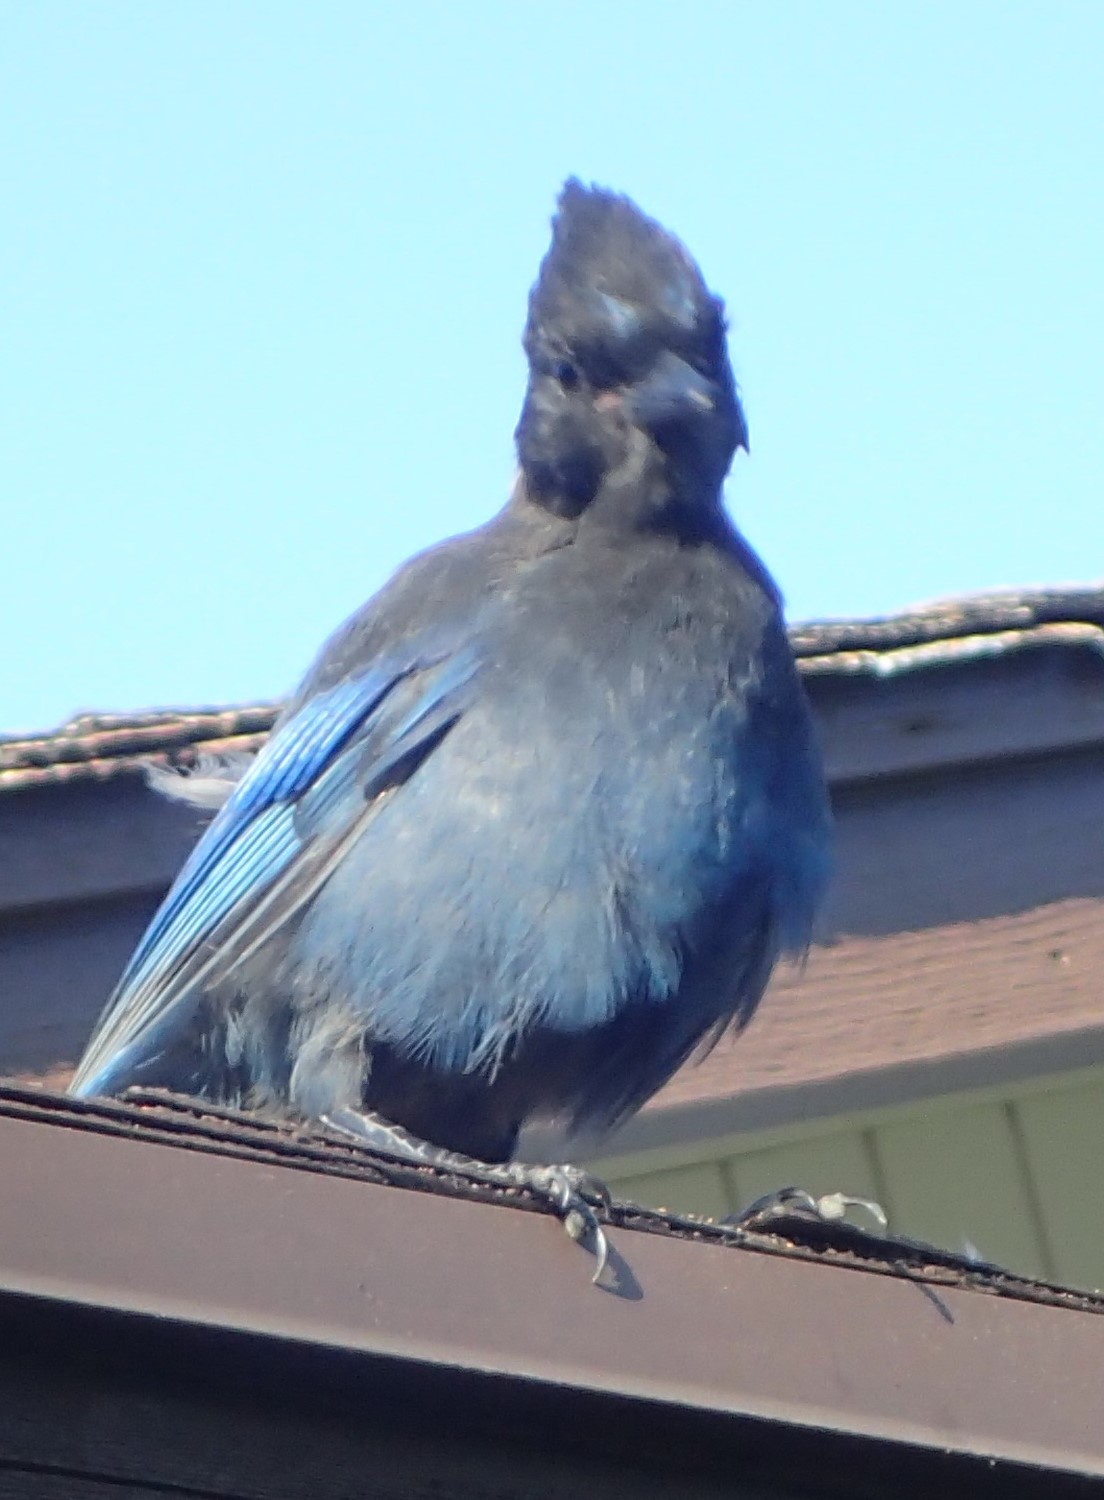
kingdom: Animalia
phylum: Chordata
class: Aves
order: Passeriformes
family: Corvidae
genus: Cyanocitta
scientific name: Cyanocitta stelleri
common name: Steller's jay
